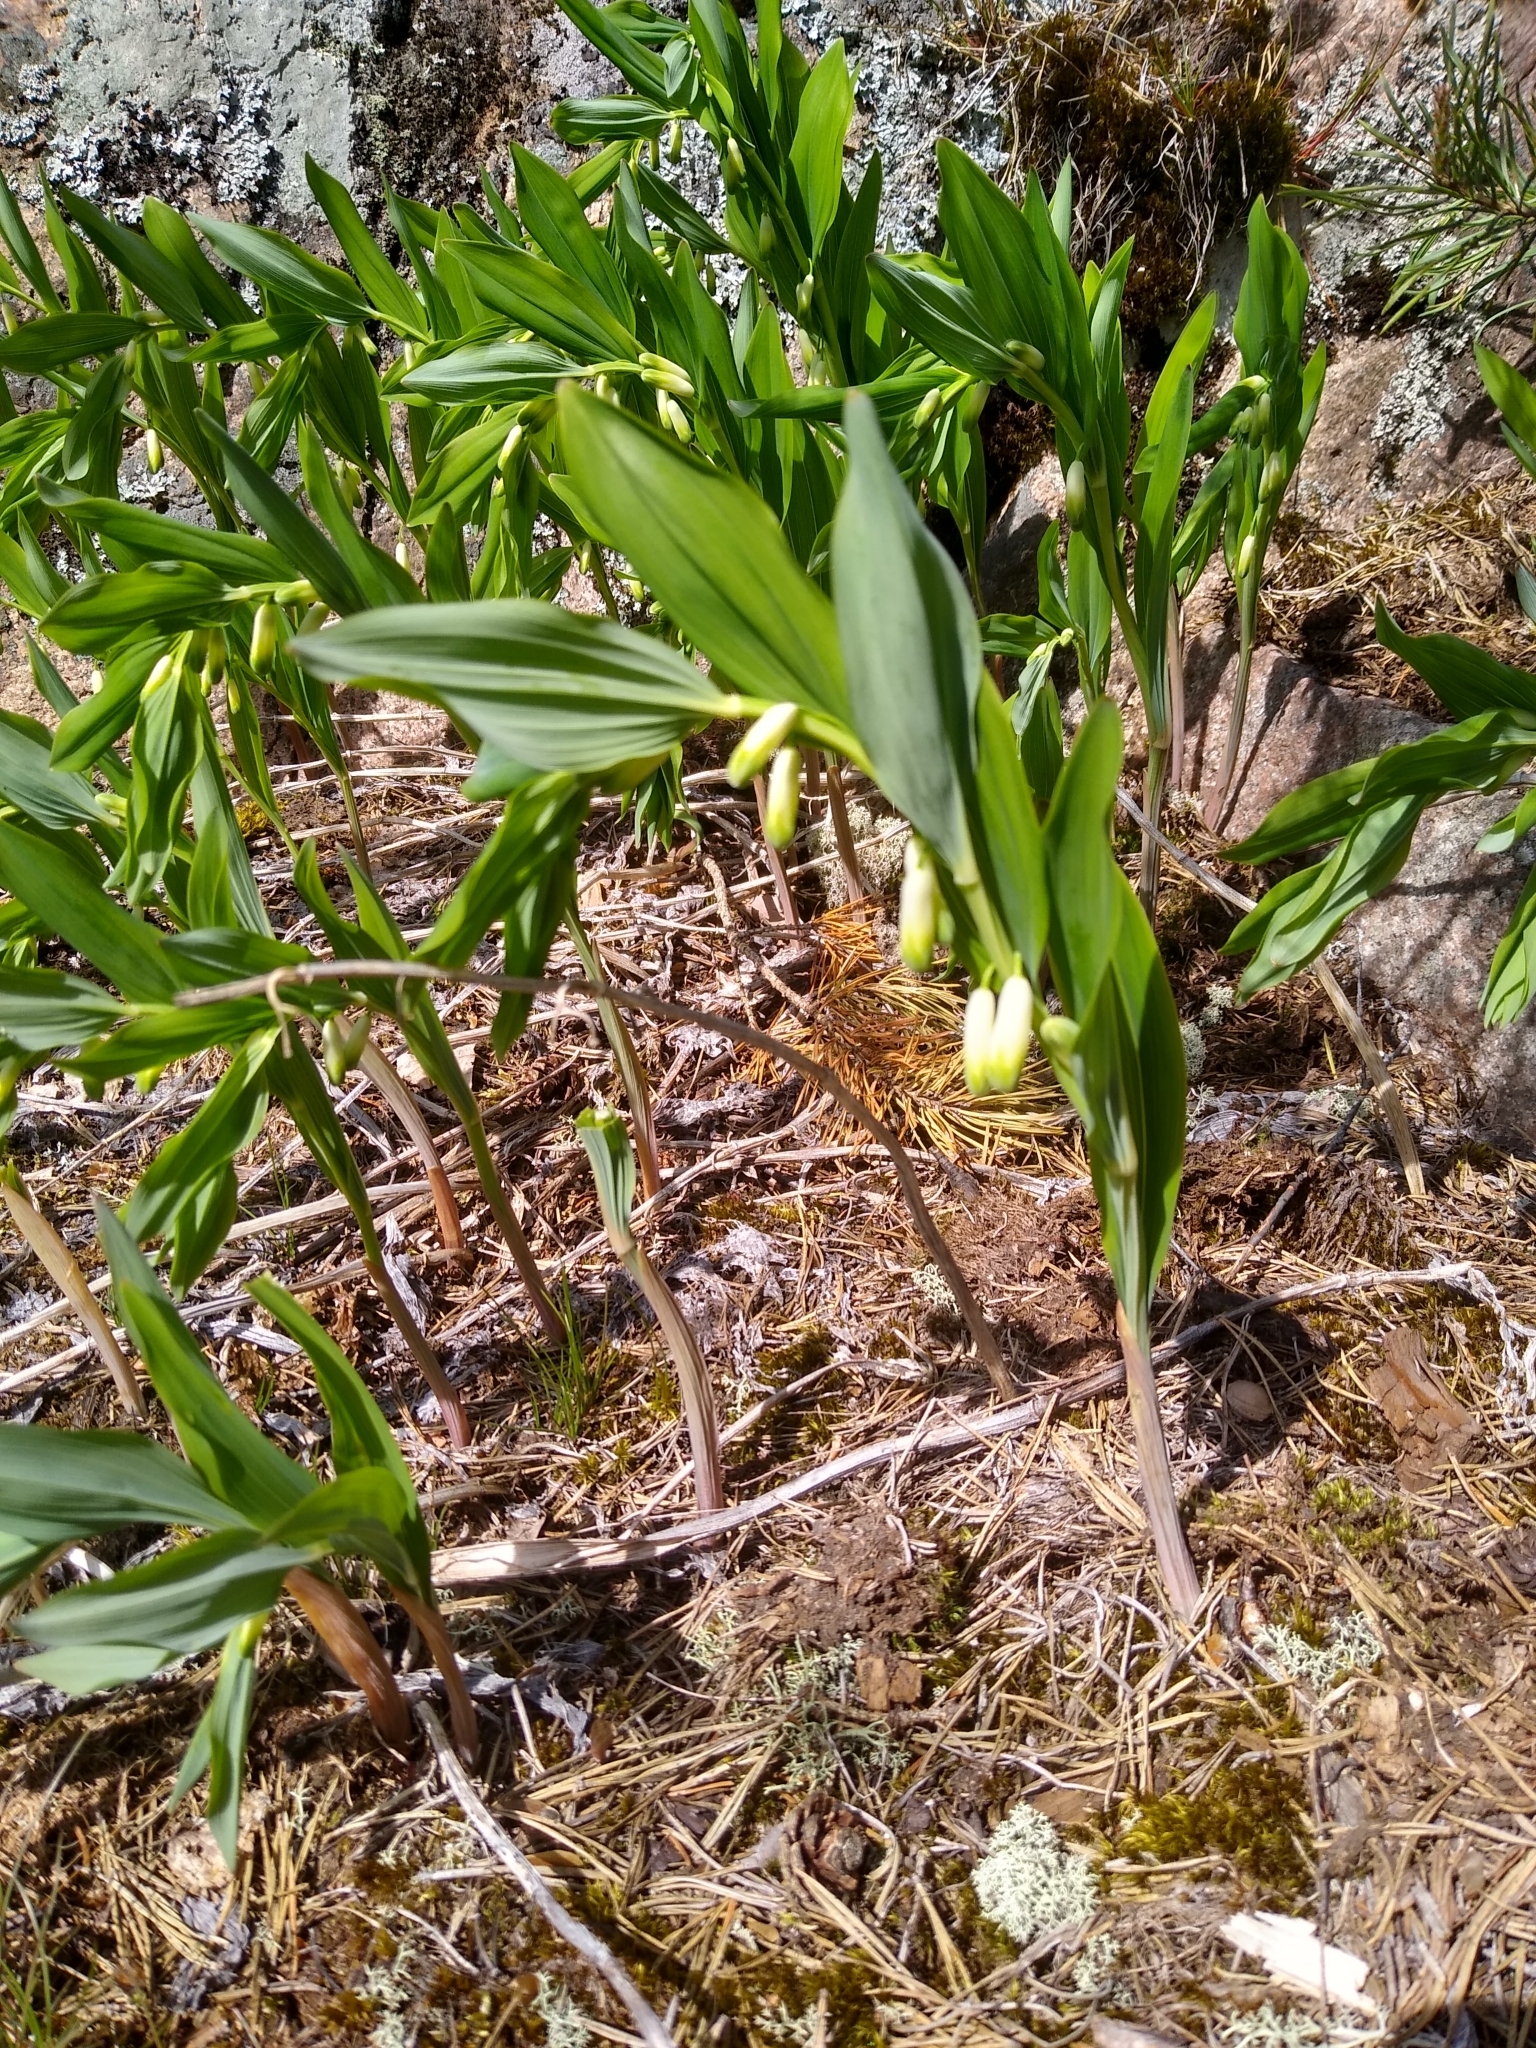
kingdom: Plantae
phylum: Tracheophyta
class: Liliopsida
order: Asparagales
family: Asparagaceae
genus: Polygonatum
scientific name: Polygonatum odoratum
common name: Angular solomon's-seal
